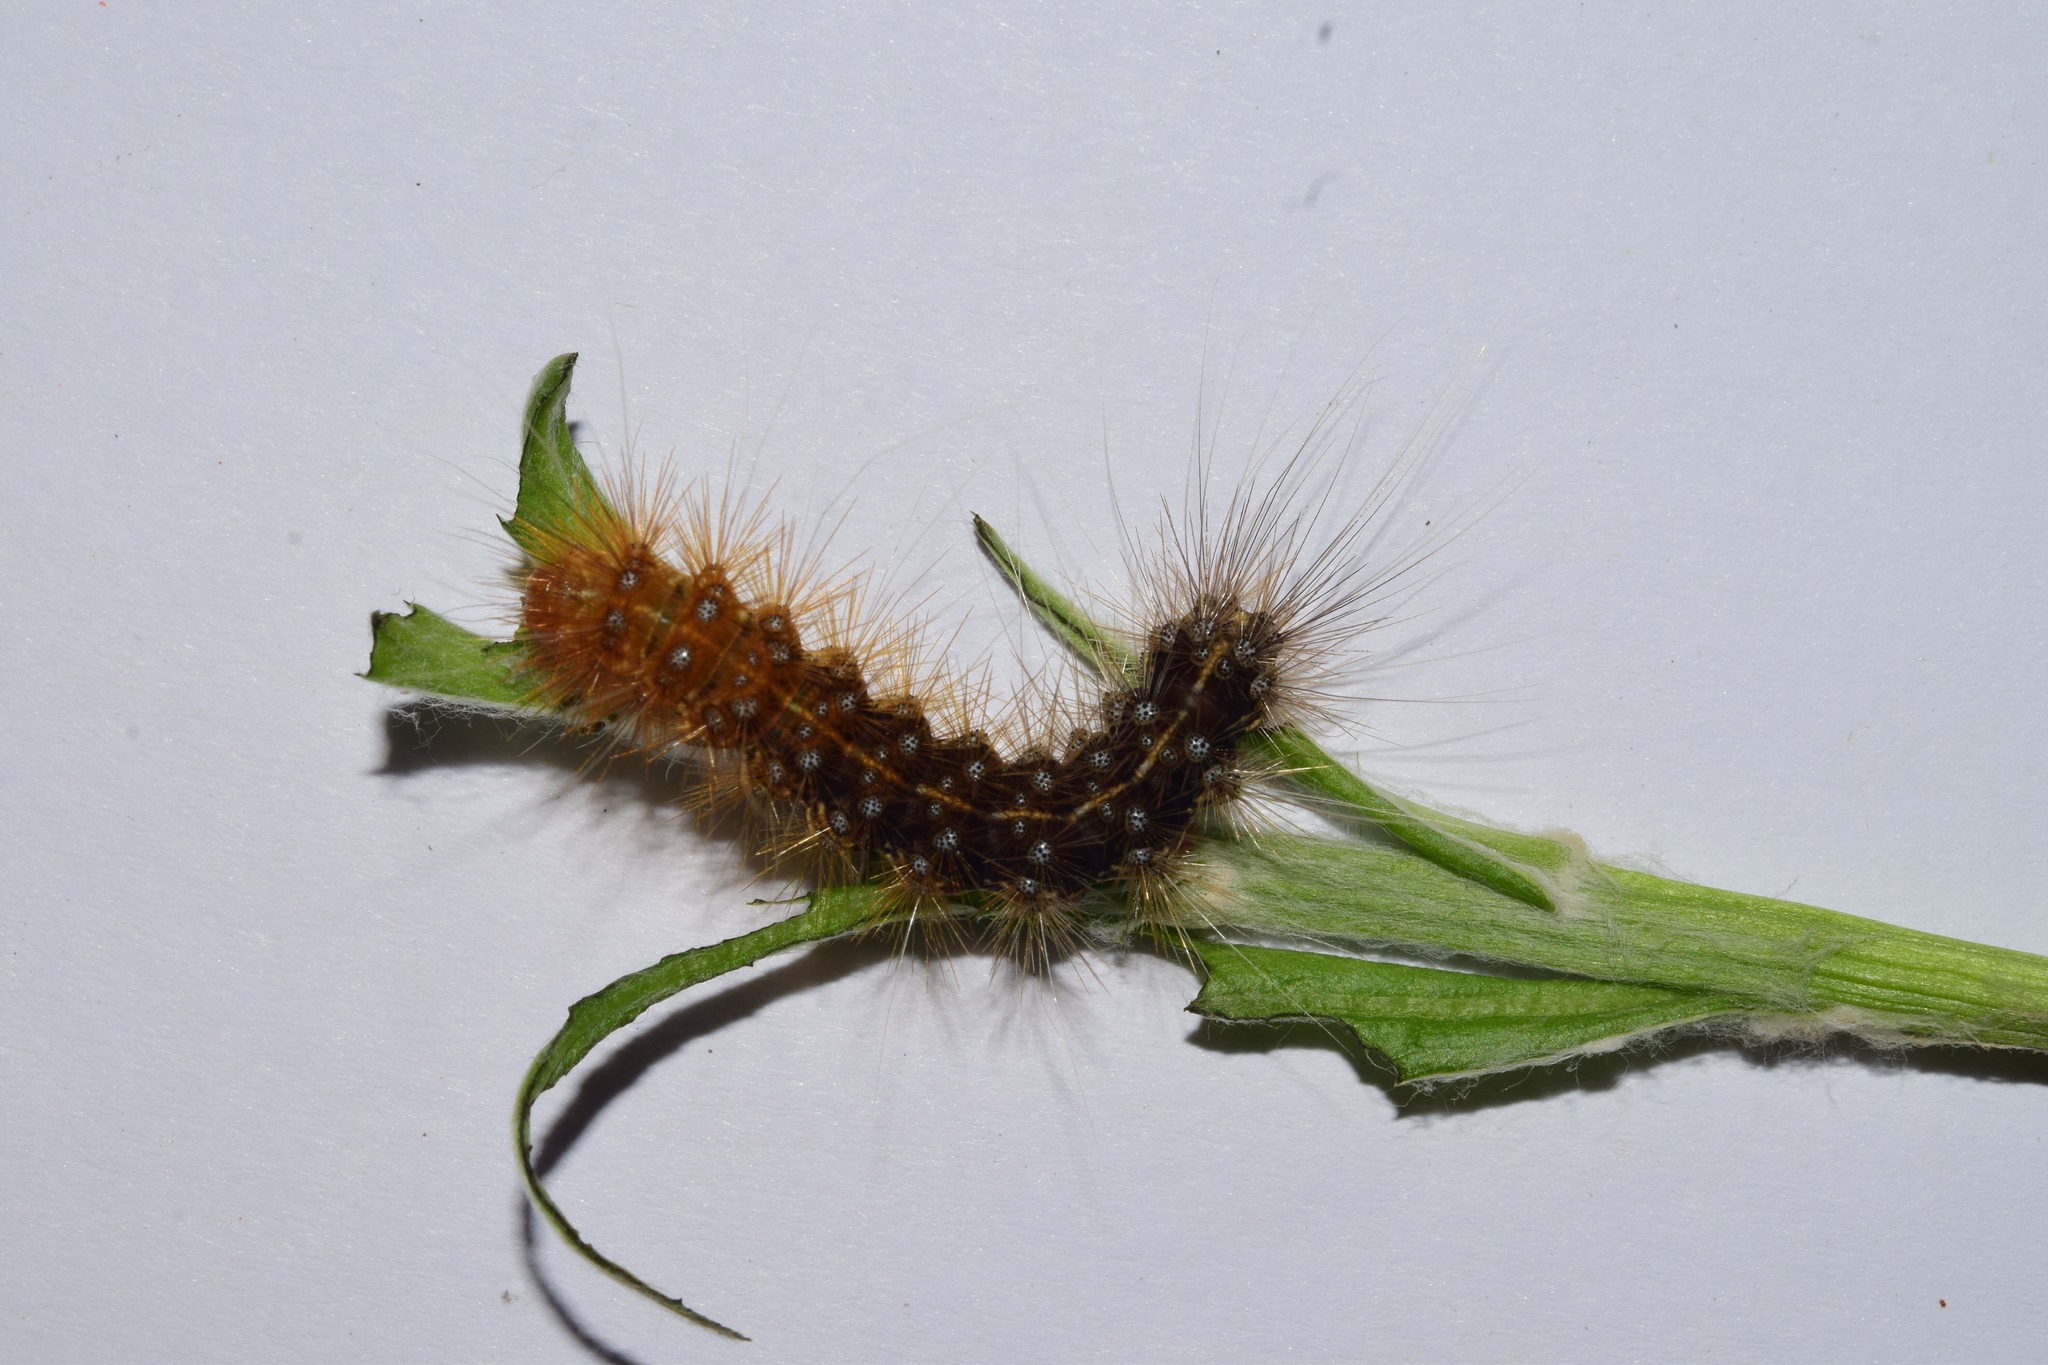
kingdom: Animalia
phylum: Arthropoda
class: Insecta
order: Lepidoptera
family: Erebidae
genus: Rhodogastria
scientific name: Rhodogastria similis
